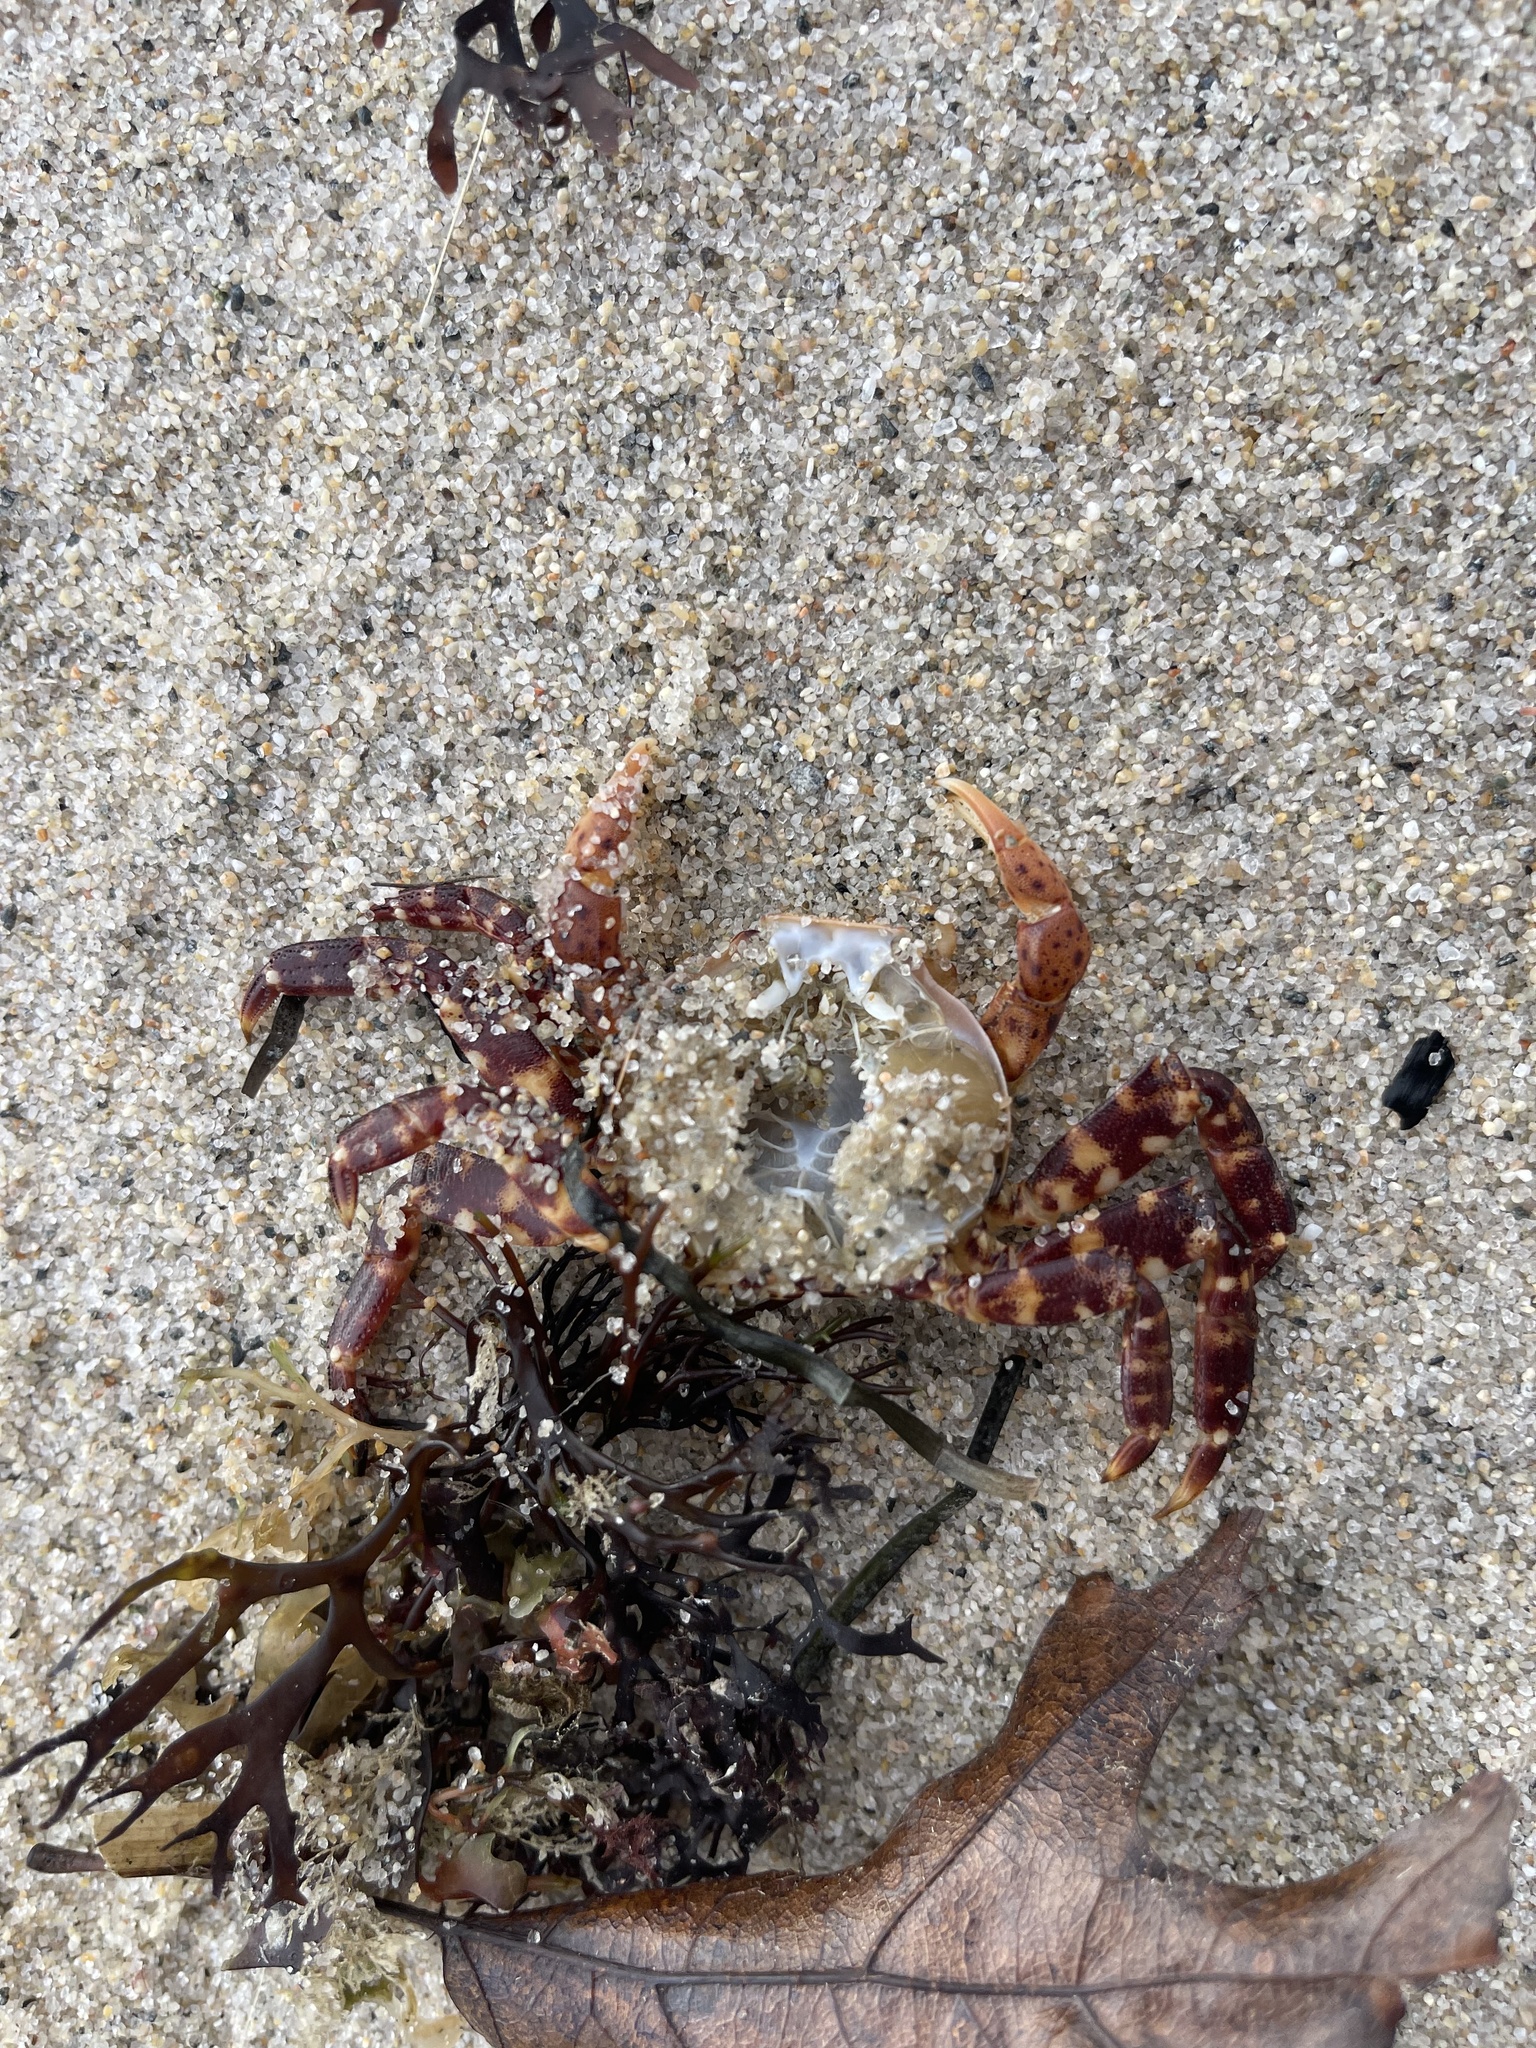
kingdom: Animalia
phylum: Arthropoda
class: Malacostraca
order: Decapoda
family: Varunidae
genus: Hemigrapsus
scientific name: Hemigrapsus sanguineus
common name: Asian shore crab
